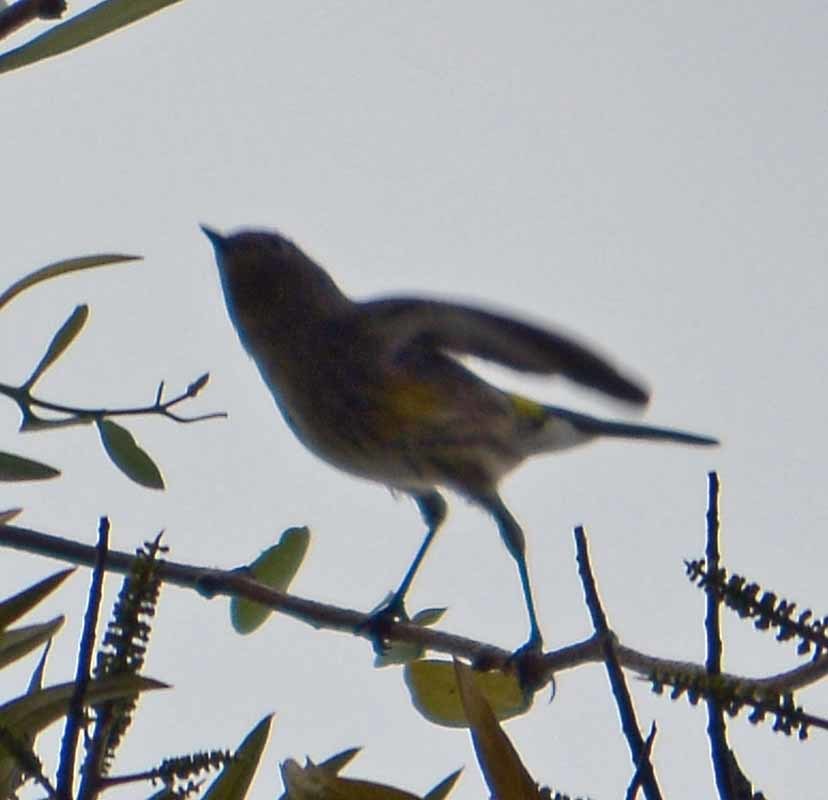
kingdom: Animalia
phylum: Chordata
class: Aves
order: Passeriformes
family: Parulidae
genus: Setophaga
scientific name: Setophaga coronata
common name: Myrtle warbler
